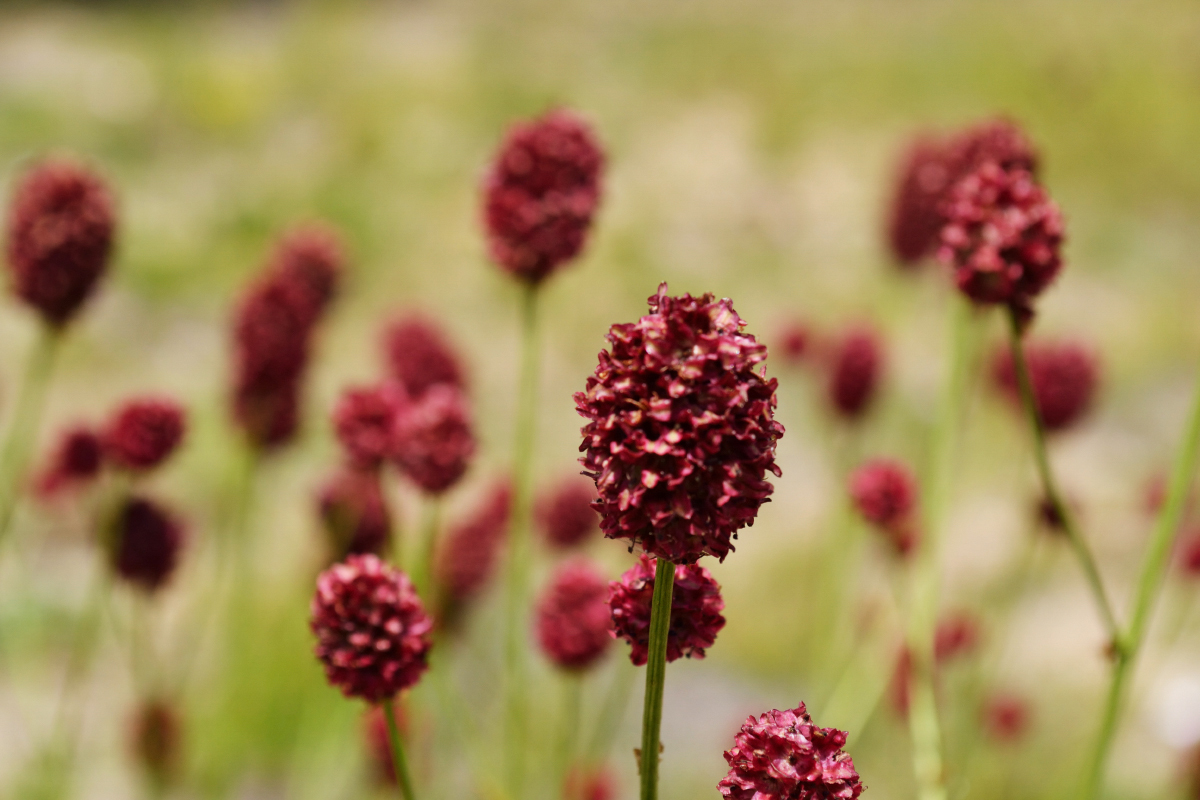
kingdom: Plantae
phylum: Tracheophyta
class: Magnoliopsida
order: Rosales
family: Rosaceae
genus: Sanguisorba
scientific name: Sanguisorba officinalis
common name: Great burnet
